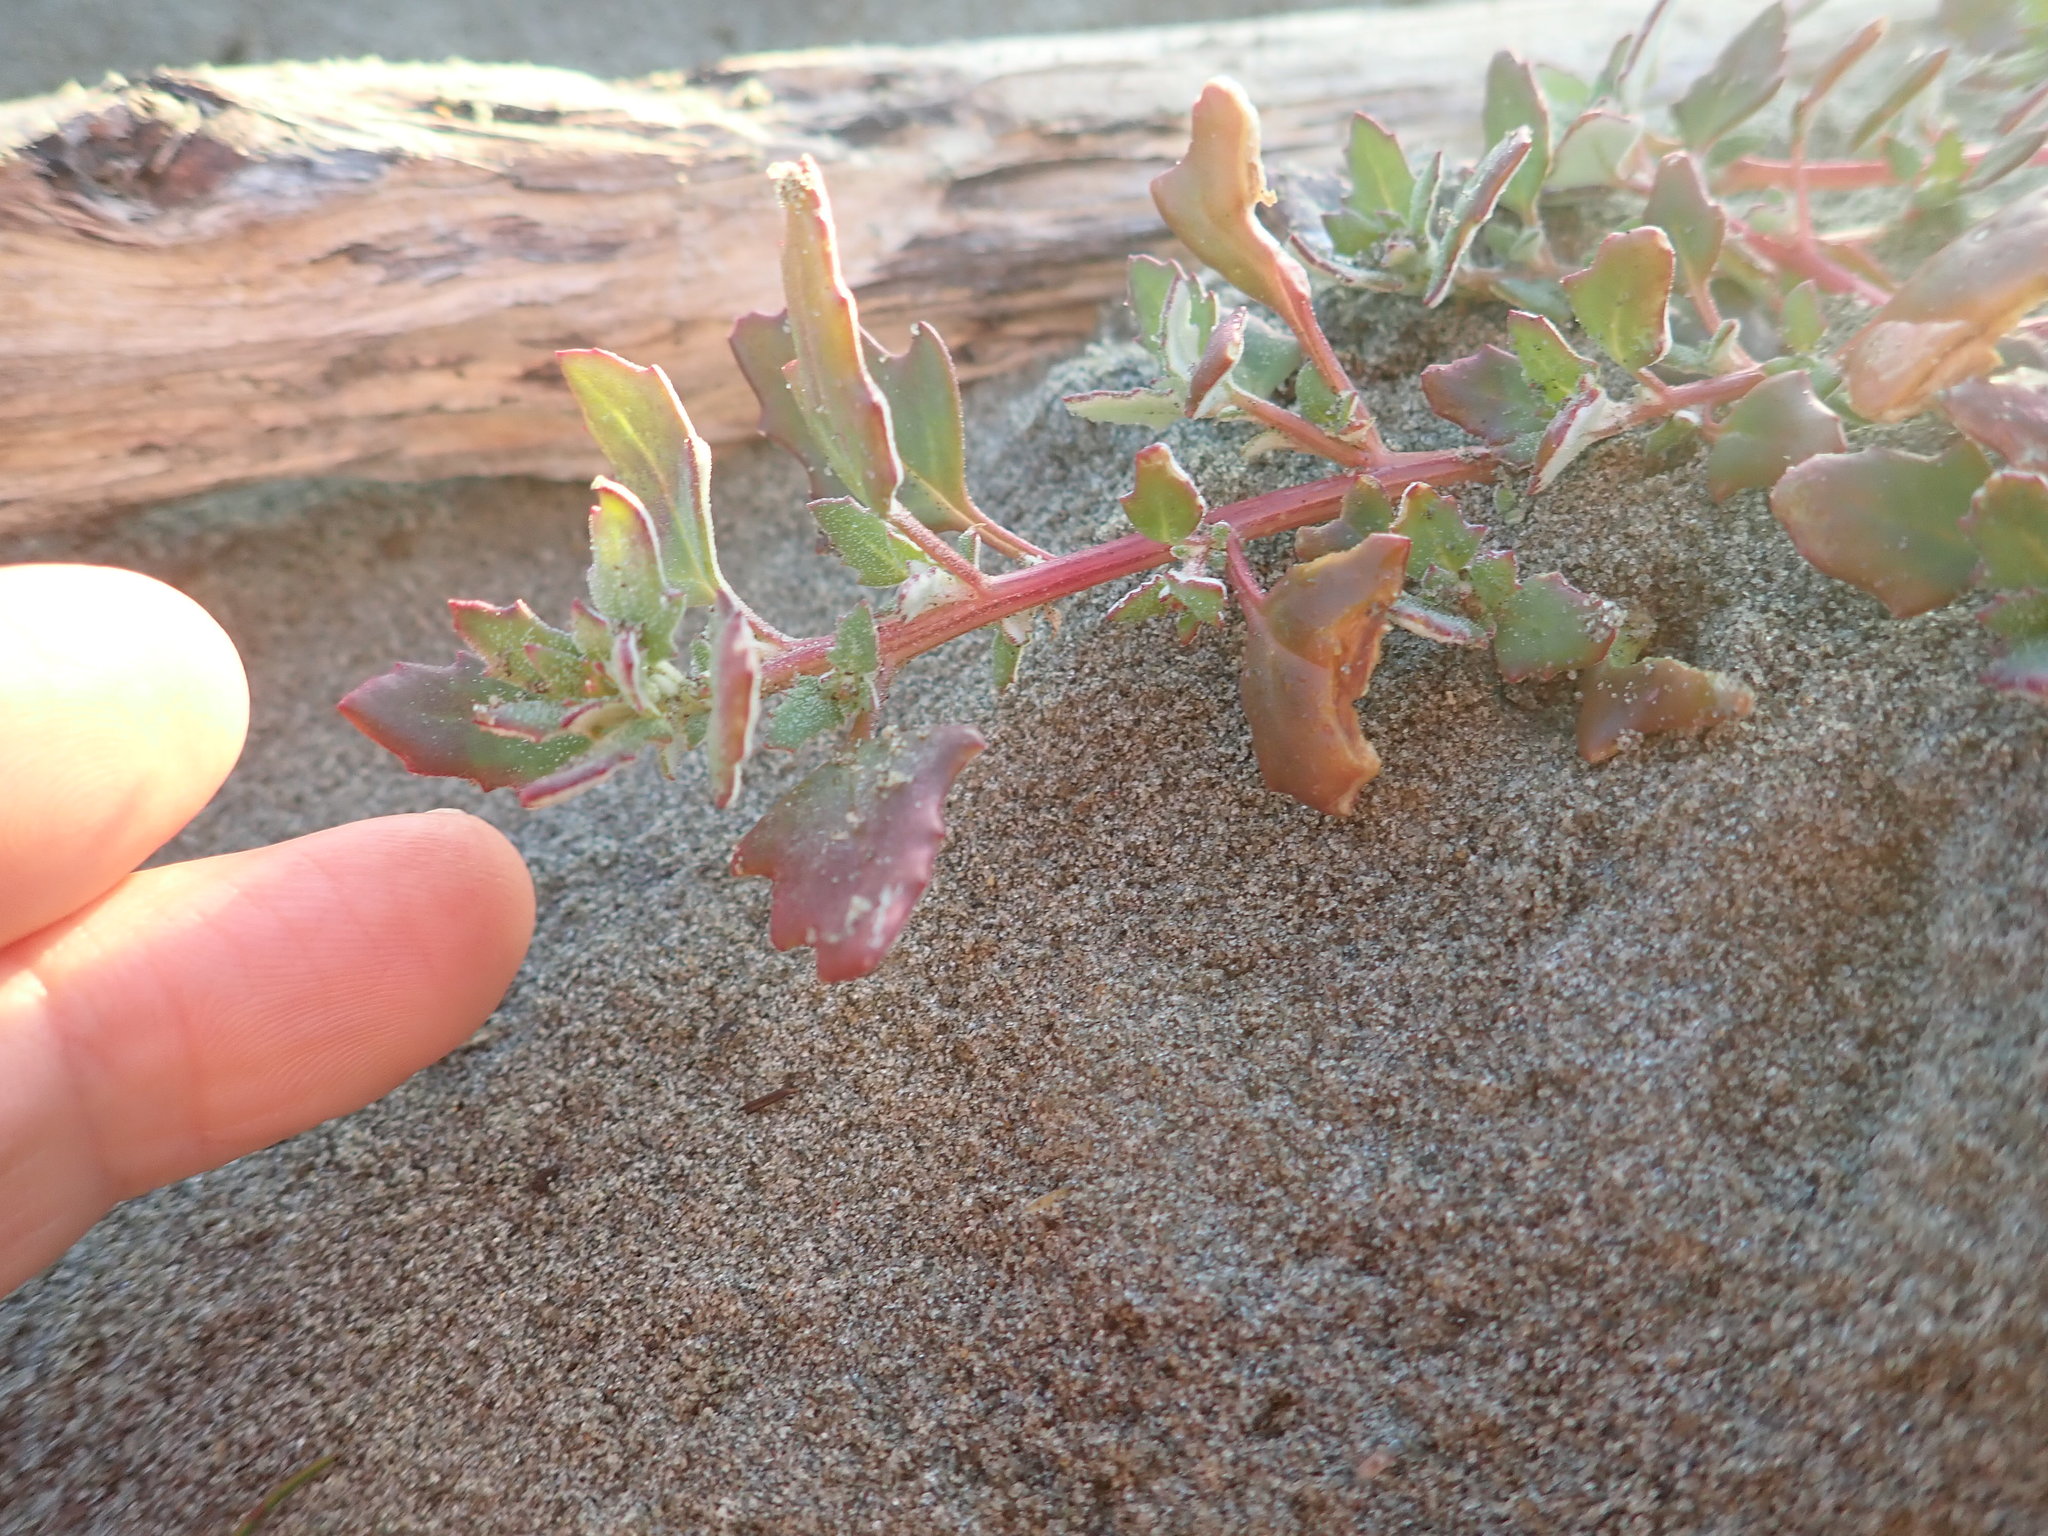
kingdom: Plantae
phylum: Tracheophyta
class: Magnoliopsida
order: Caryophyllales
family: Amaranthaceae
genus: Oxybasis
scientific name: Oxybasis ambigua
